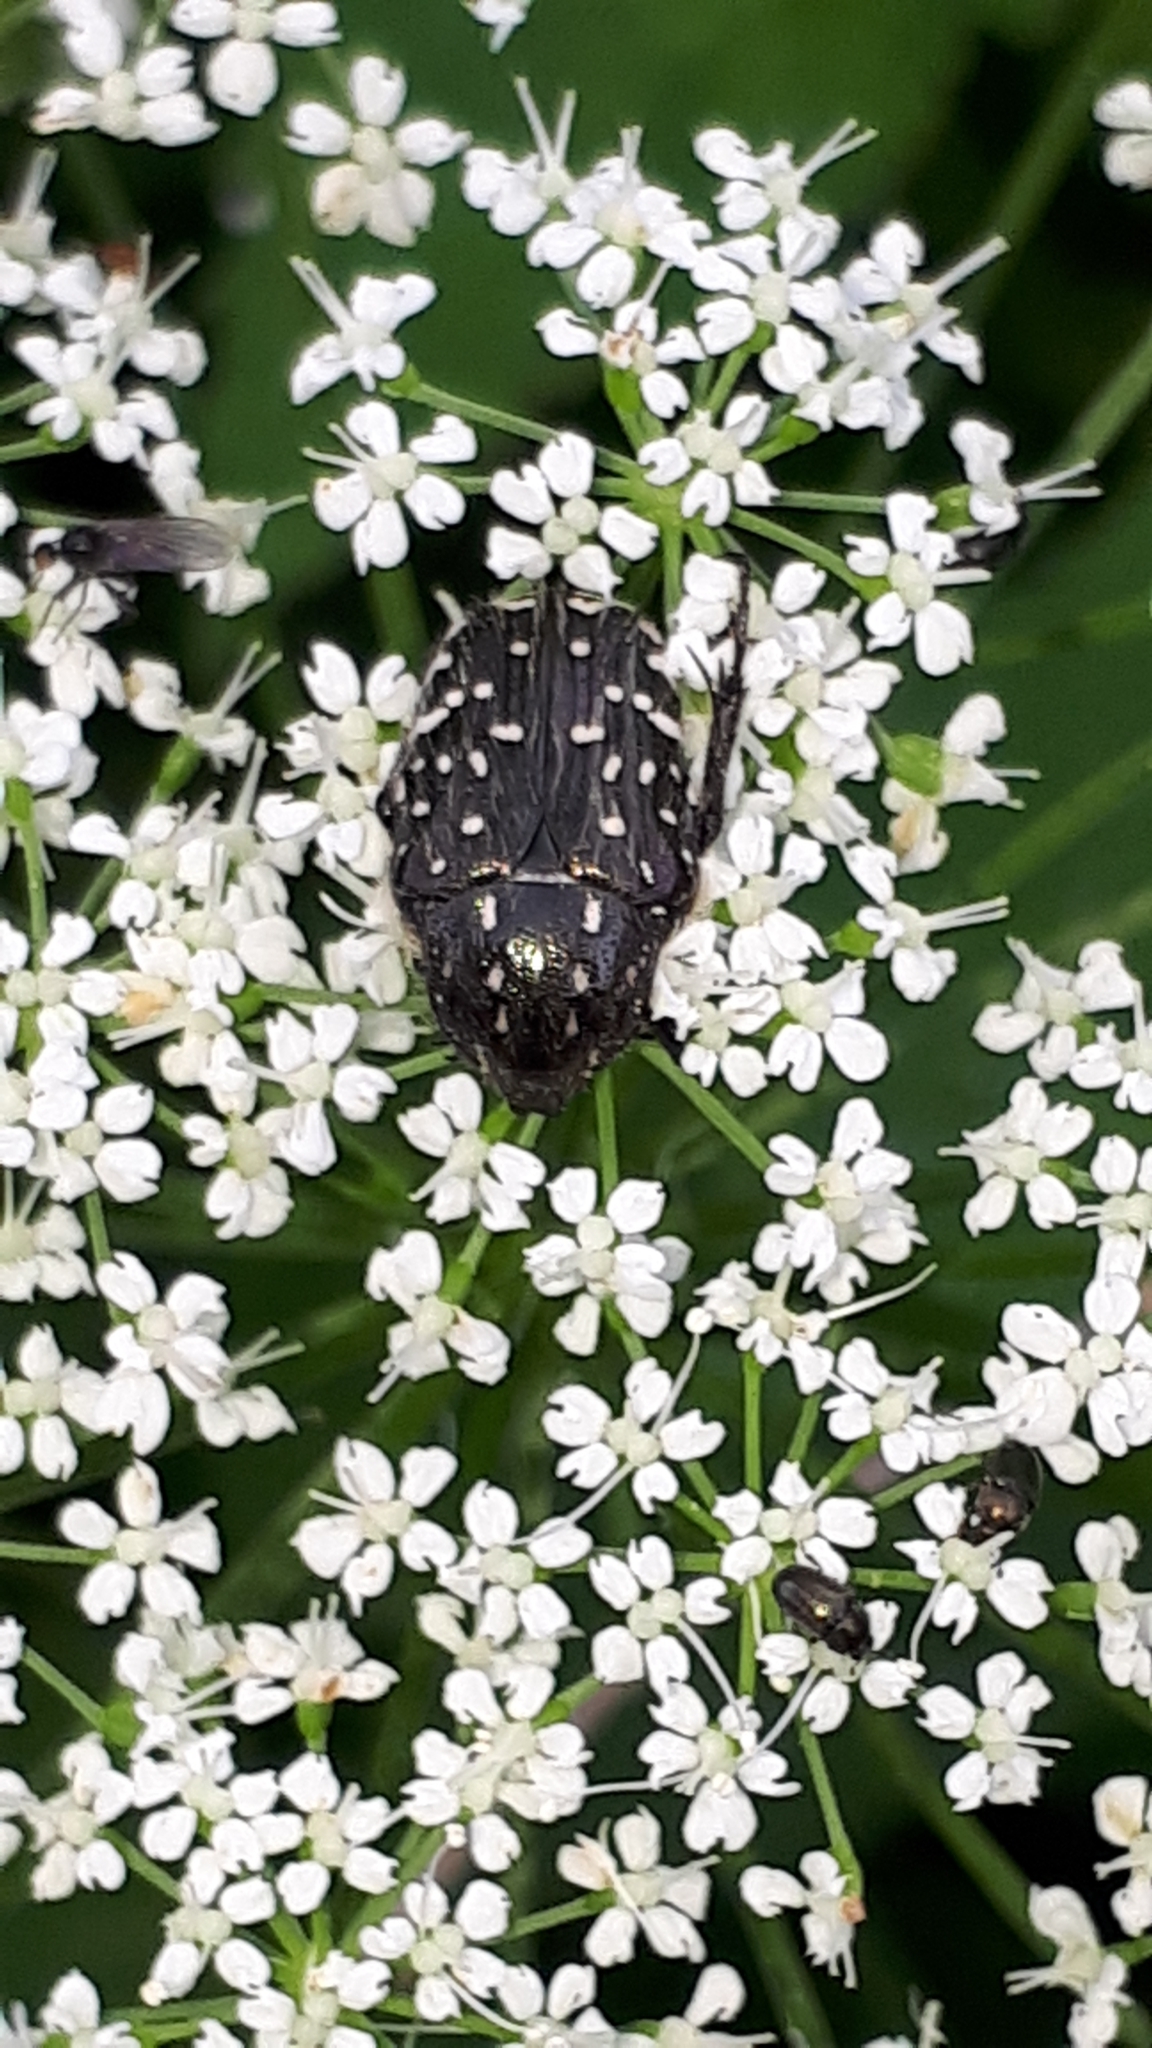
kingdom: Animalia
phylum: Arthropoda
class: Insecta
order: Coleoptera
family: Scarabaeidae
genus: Oxythyrea
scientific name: Oxythyrea funesta
